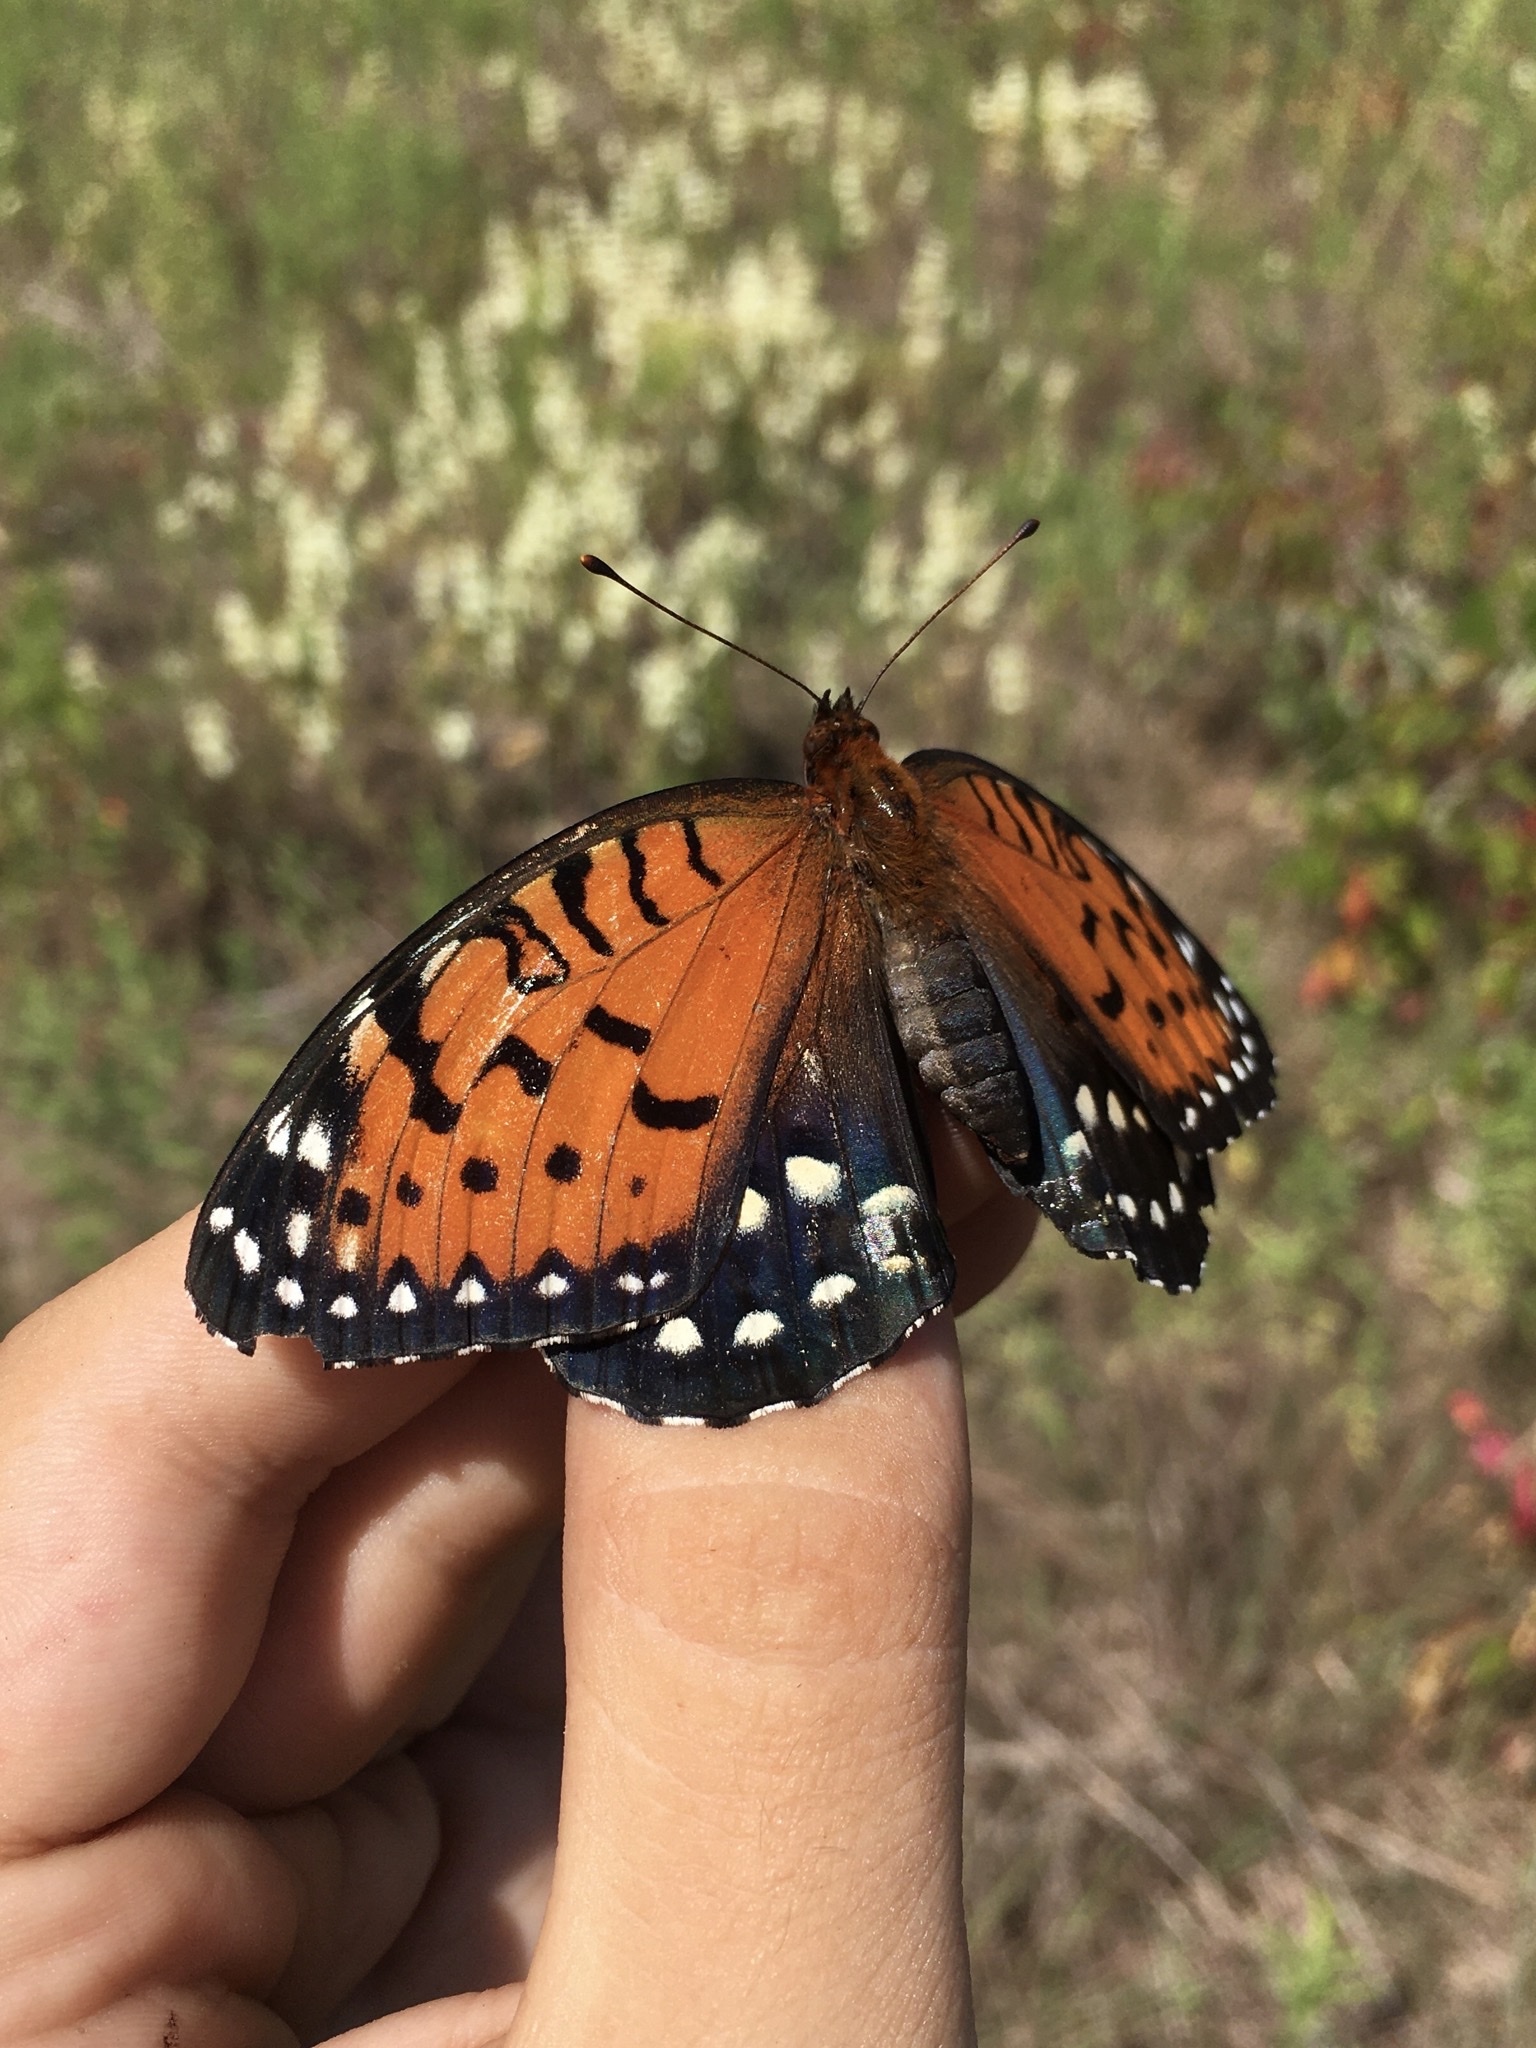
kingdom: Animalia
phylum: Arthropoda
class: Insecta
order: Lepidoptera
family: Nymphalidae
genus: Speyeria
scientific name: Speyeria idalia
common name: Regal fritillary
